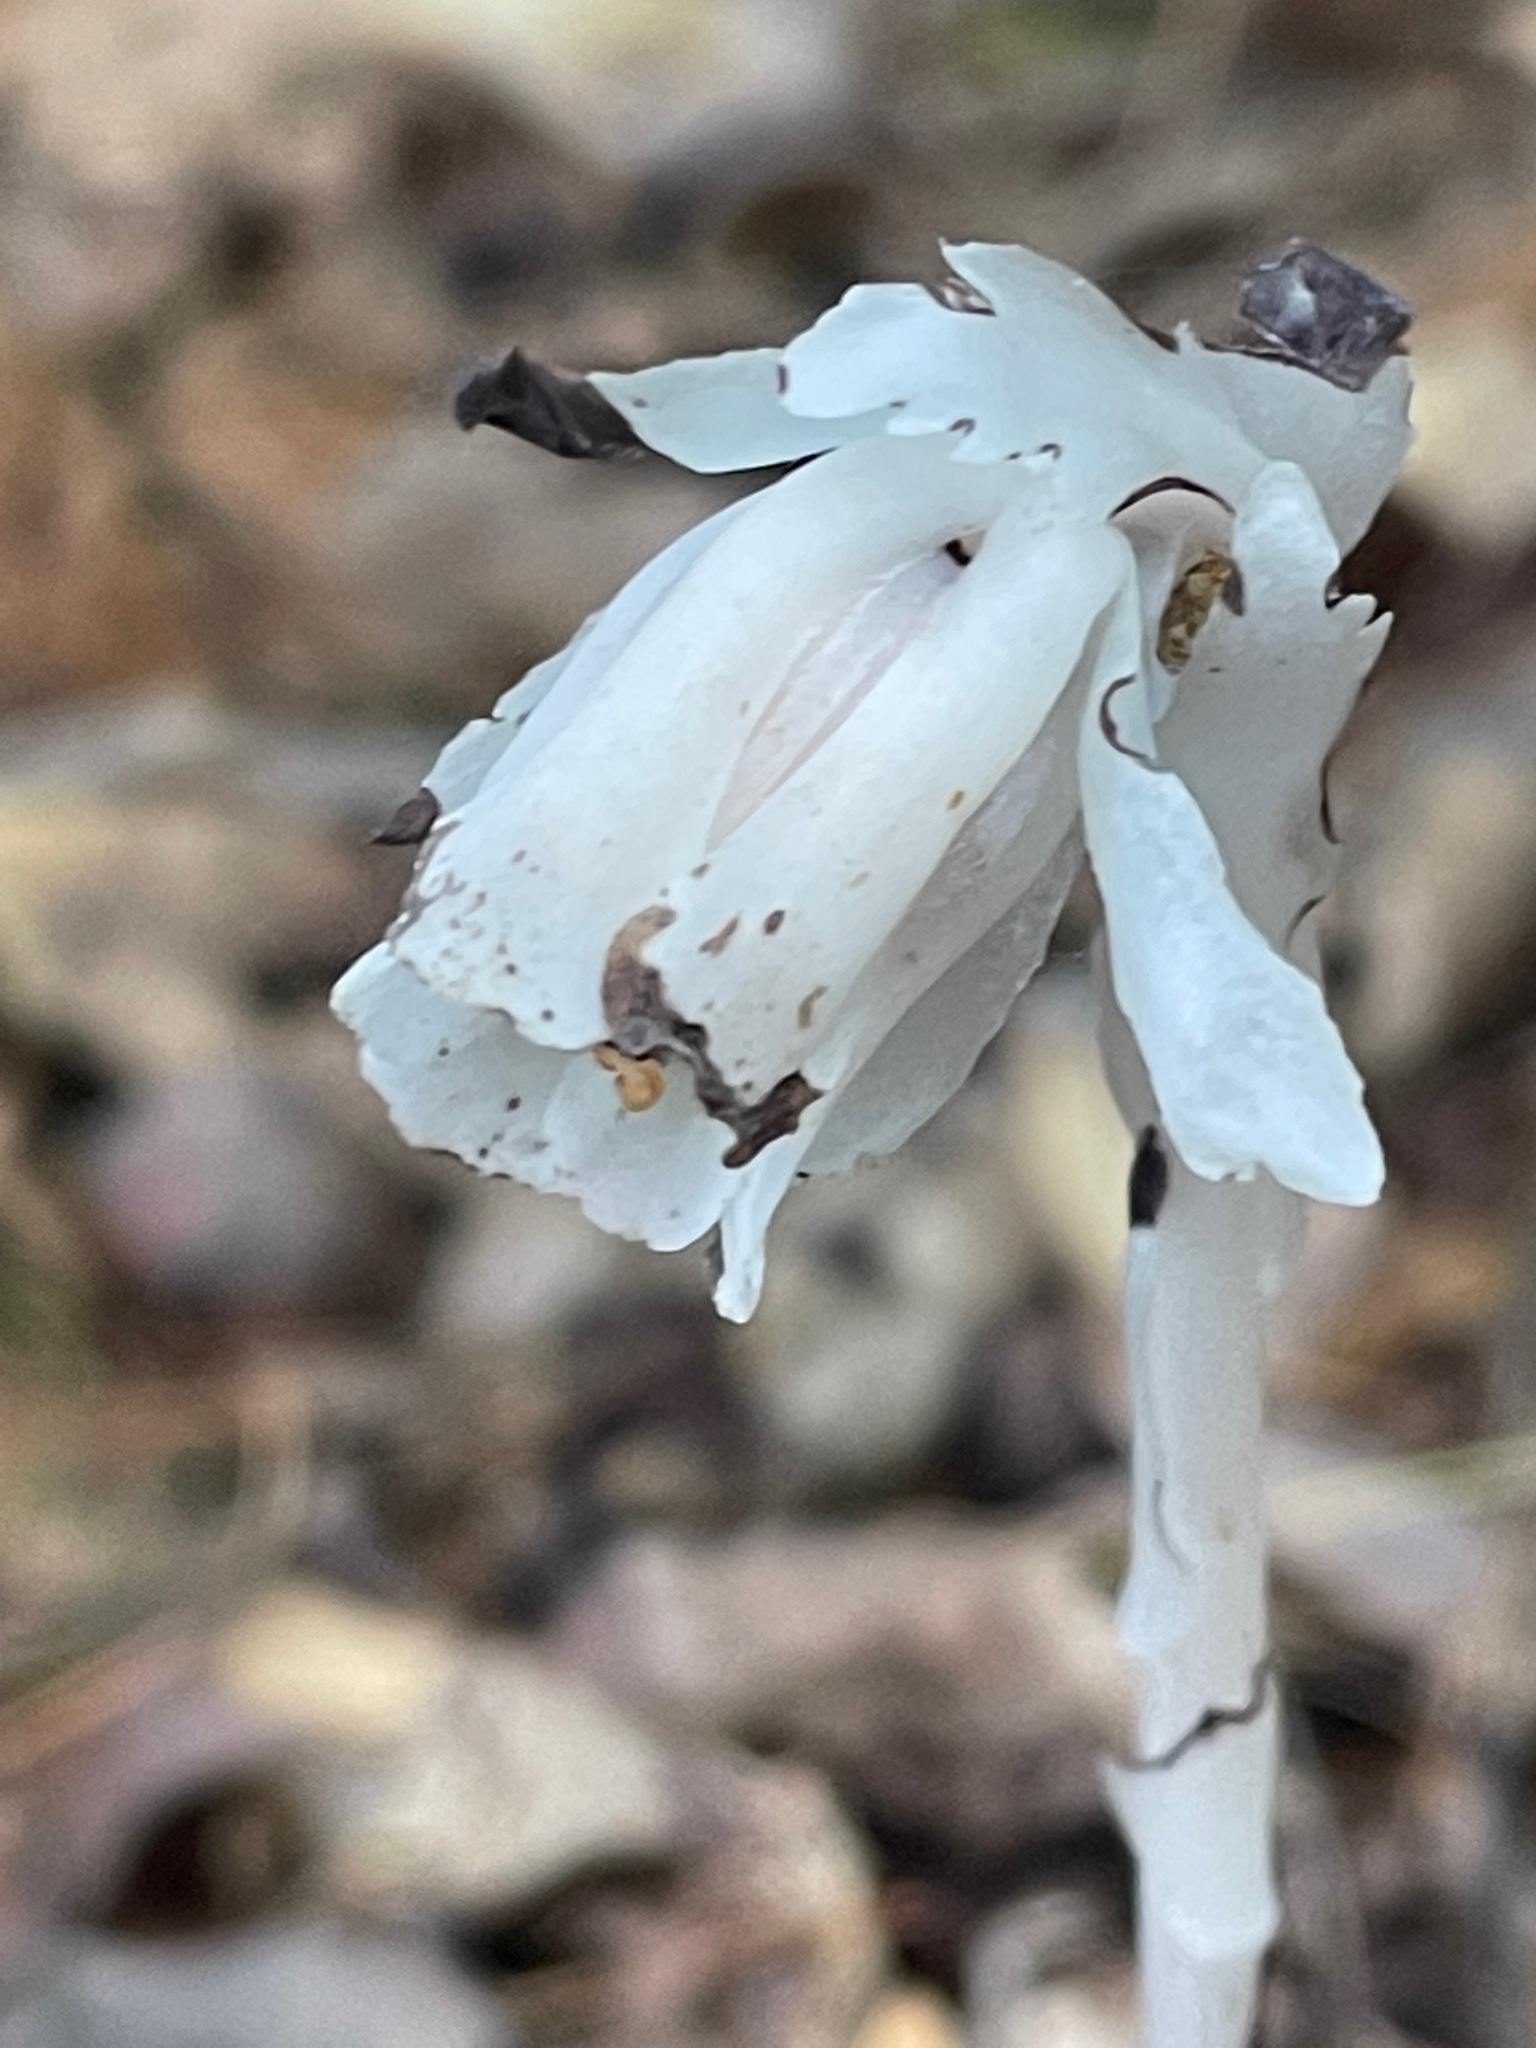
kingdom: Plantae
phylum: Tracheophyta
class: Magnoliopsida
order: Ericales
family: Ericaceae
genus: Monotropa
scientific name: Monotropa uniflora
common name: Convulsion root
